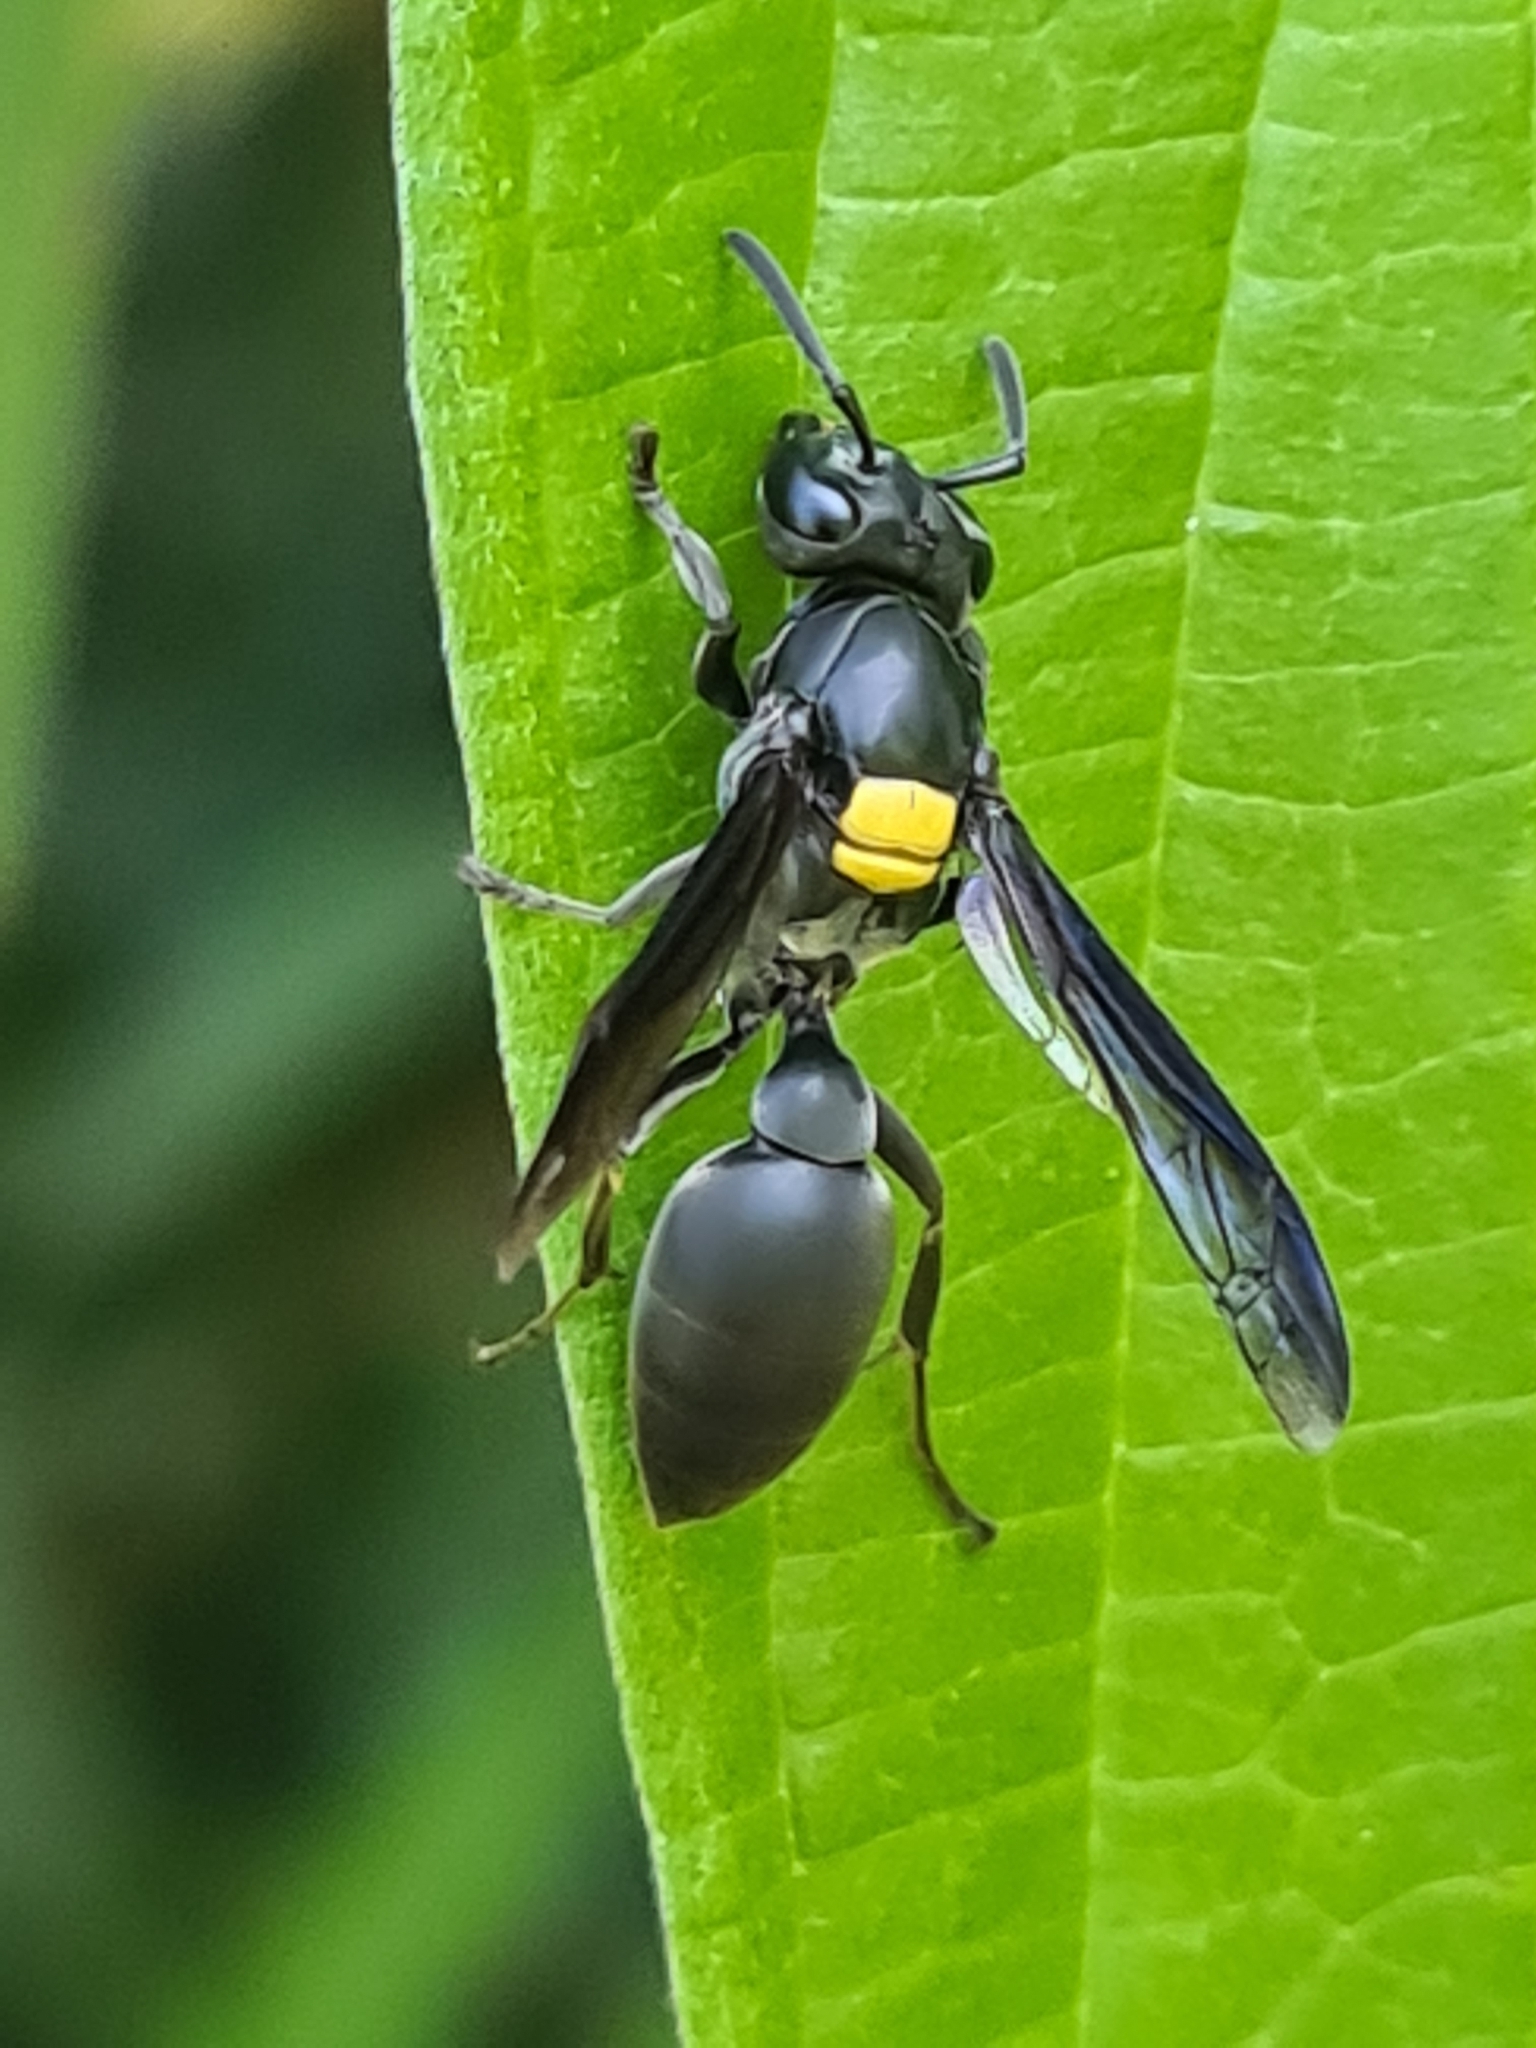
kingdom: Animalia
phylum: Arthropoda
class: Insecta
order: Hymenoptera
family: Eumenidae
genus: Polybia
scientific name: Polybia jurinei
